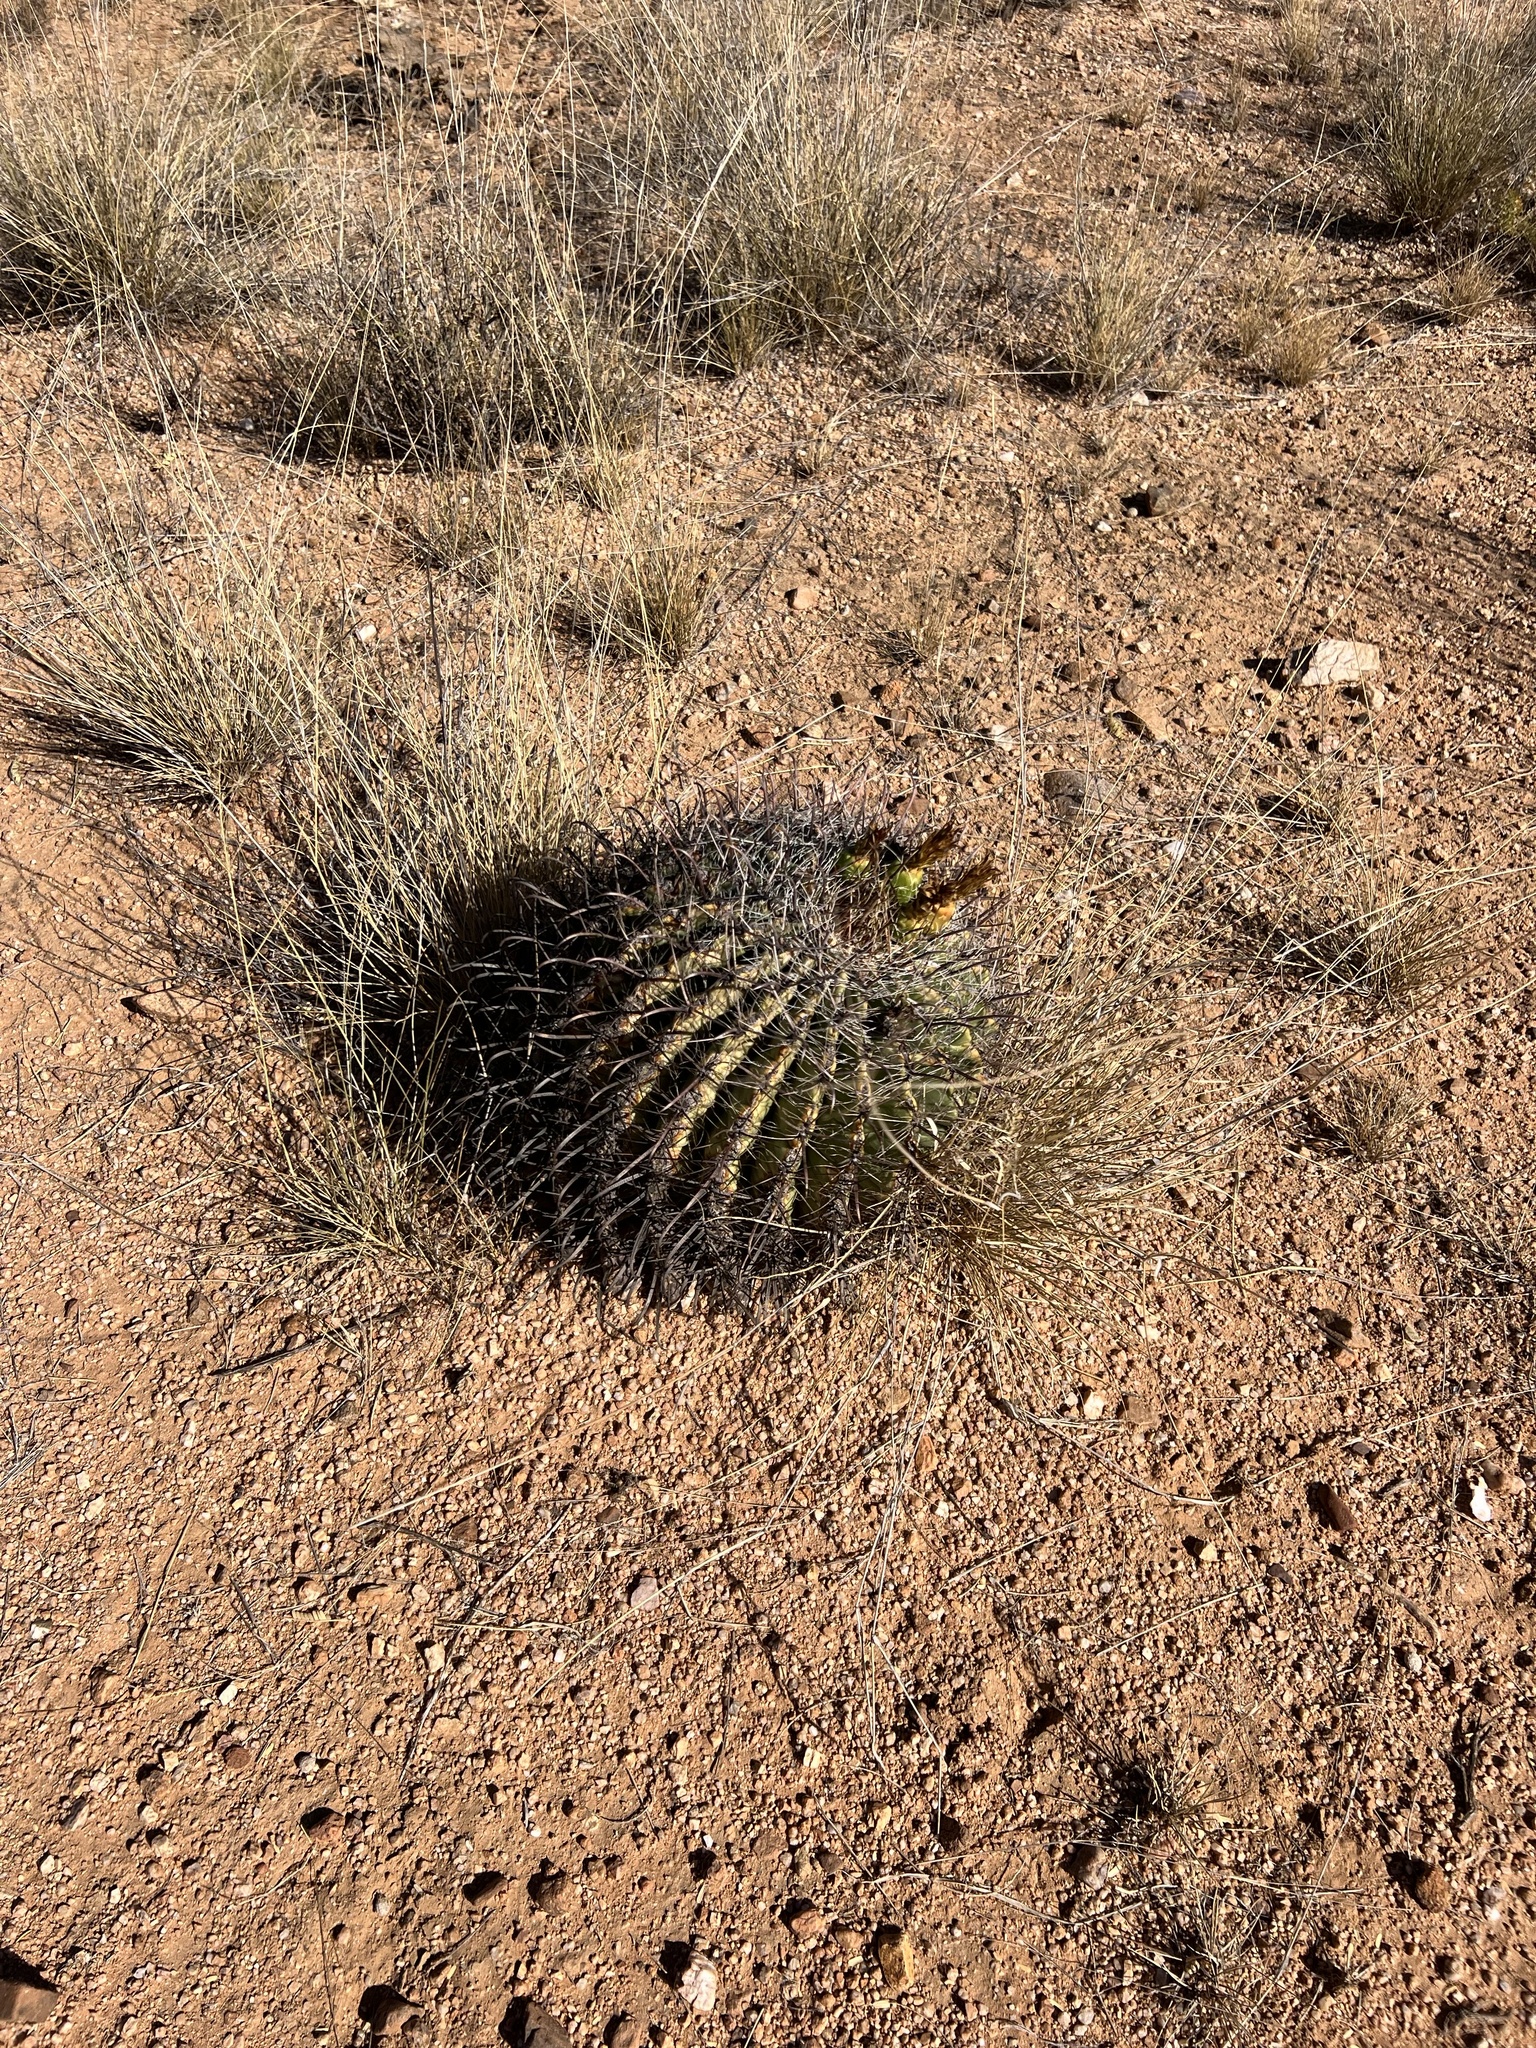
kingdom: Plantae
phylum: Tracheophyta
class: Magnoliopsida
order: Caryophyllales
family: Cactaceae
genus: Ferocactus
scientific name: Ferocactus wislizeni
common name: Candy barrel cactus
